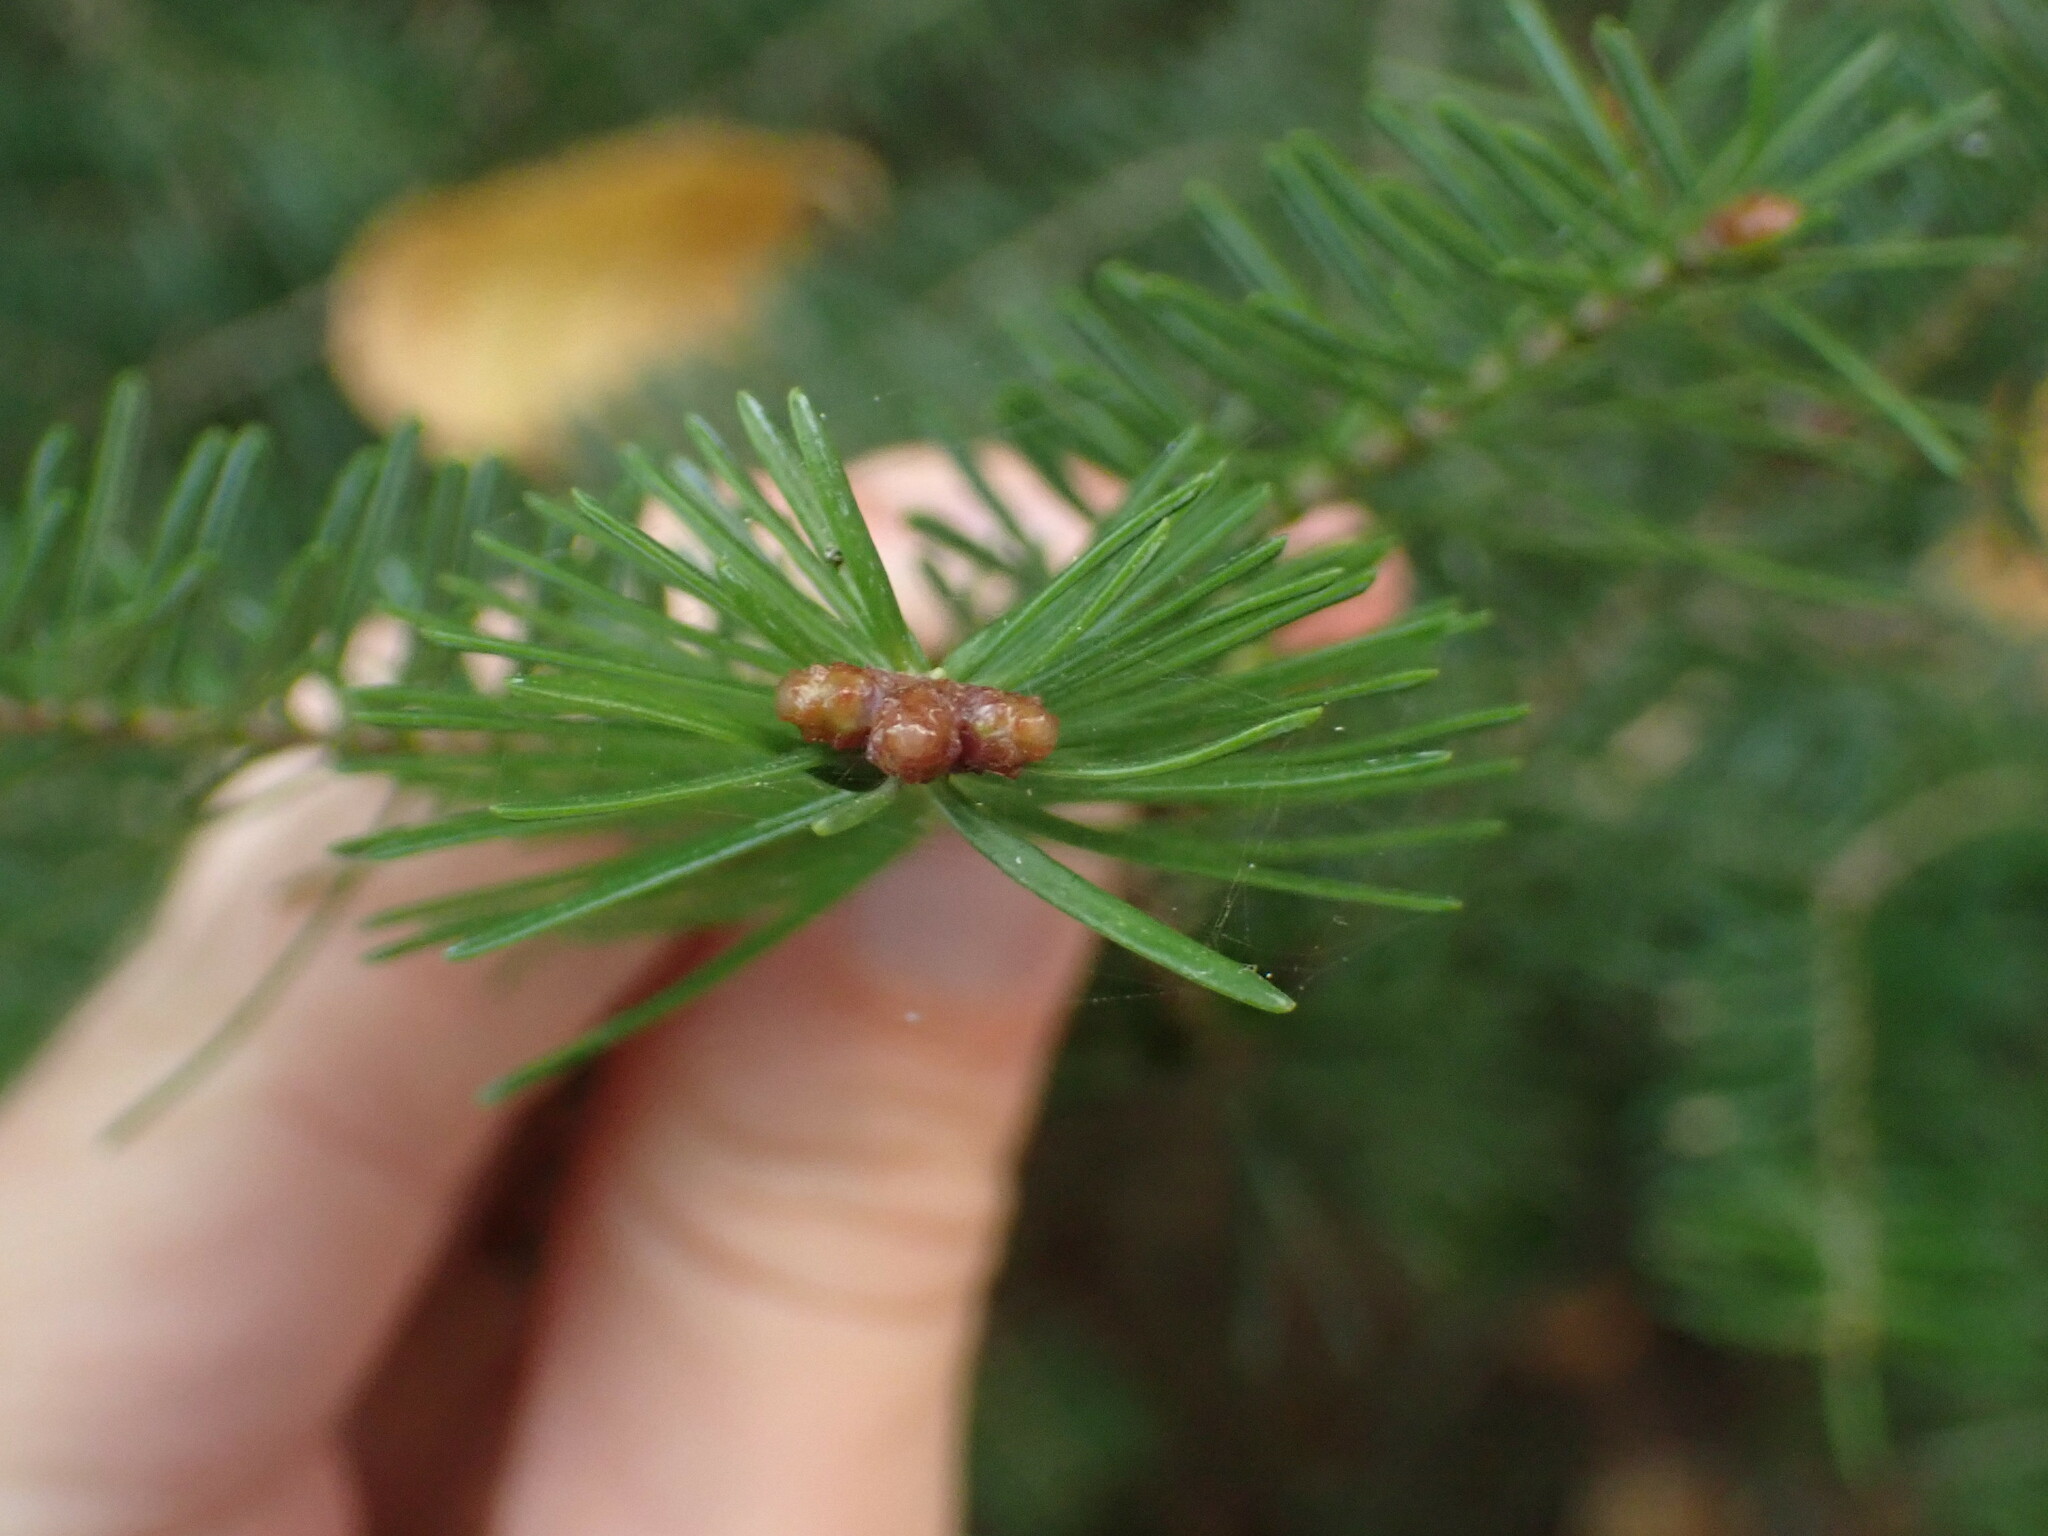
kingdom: Plantae
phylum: Tracheophyta
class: Pinopsida
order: Pinales
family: Pinaceae
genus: Abies
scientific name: Abies balsamea
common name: Balsam fir
